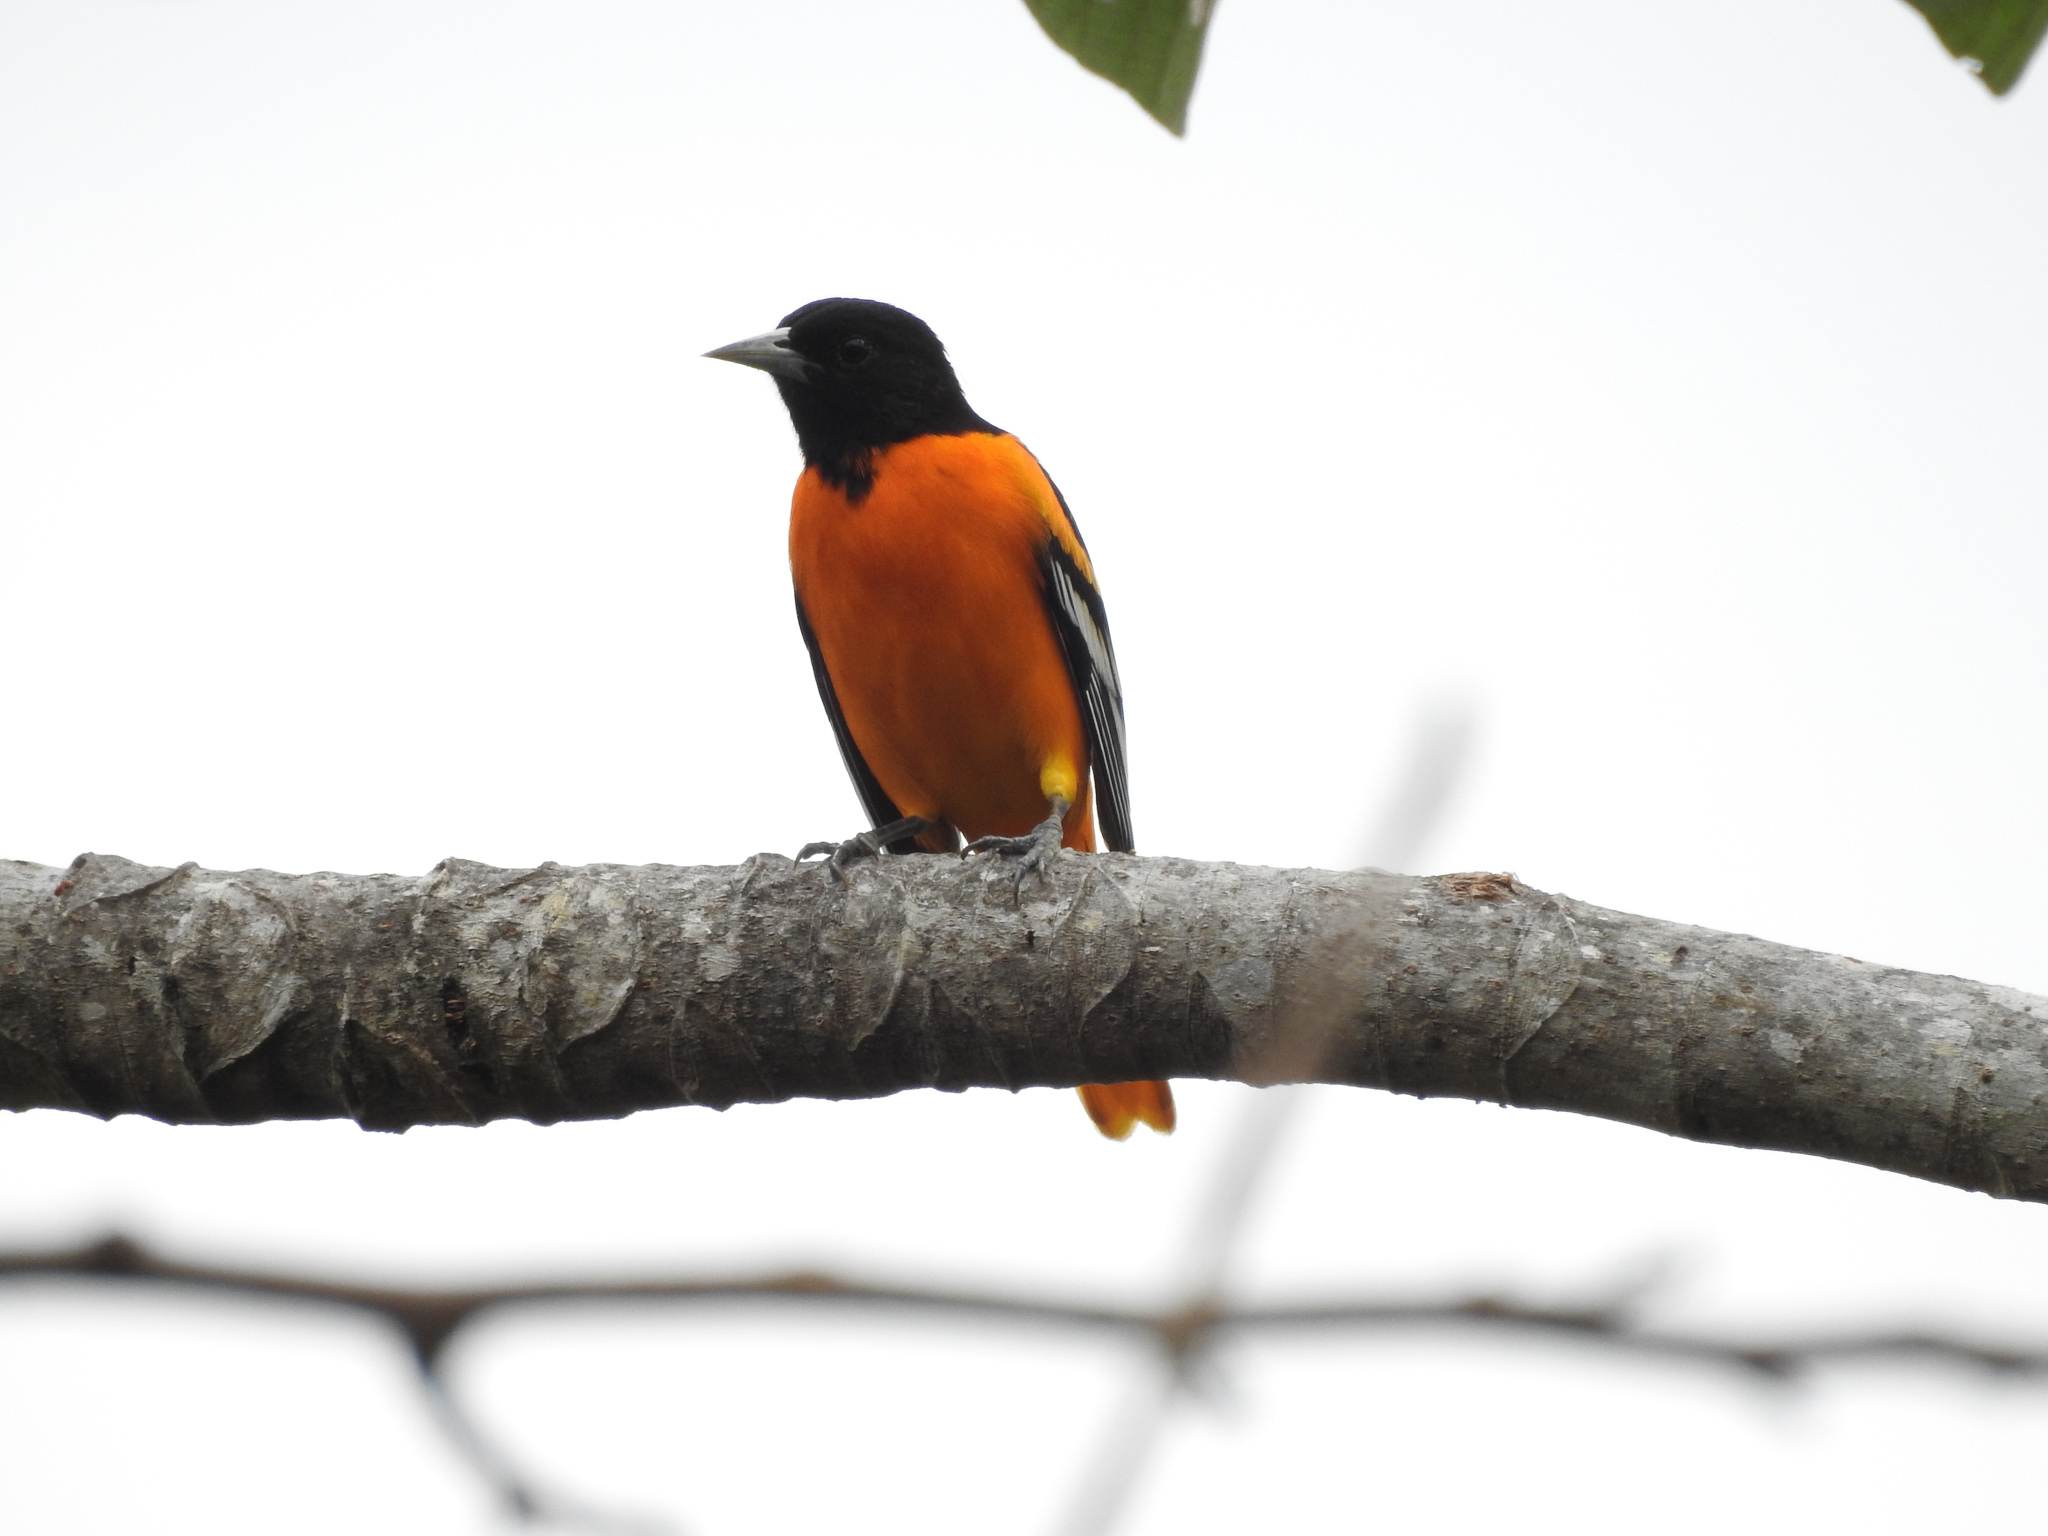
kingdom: Animalia
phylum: Chordata
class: Aves
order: Passeriformes
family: Icteridae
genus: Icterus
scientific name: Icterus galbula
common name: Baltimore oriole
